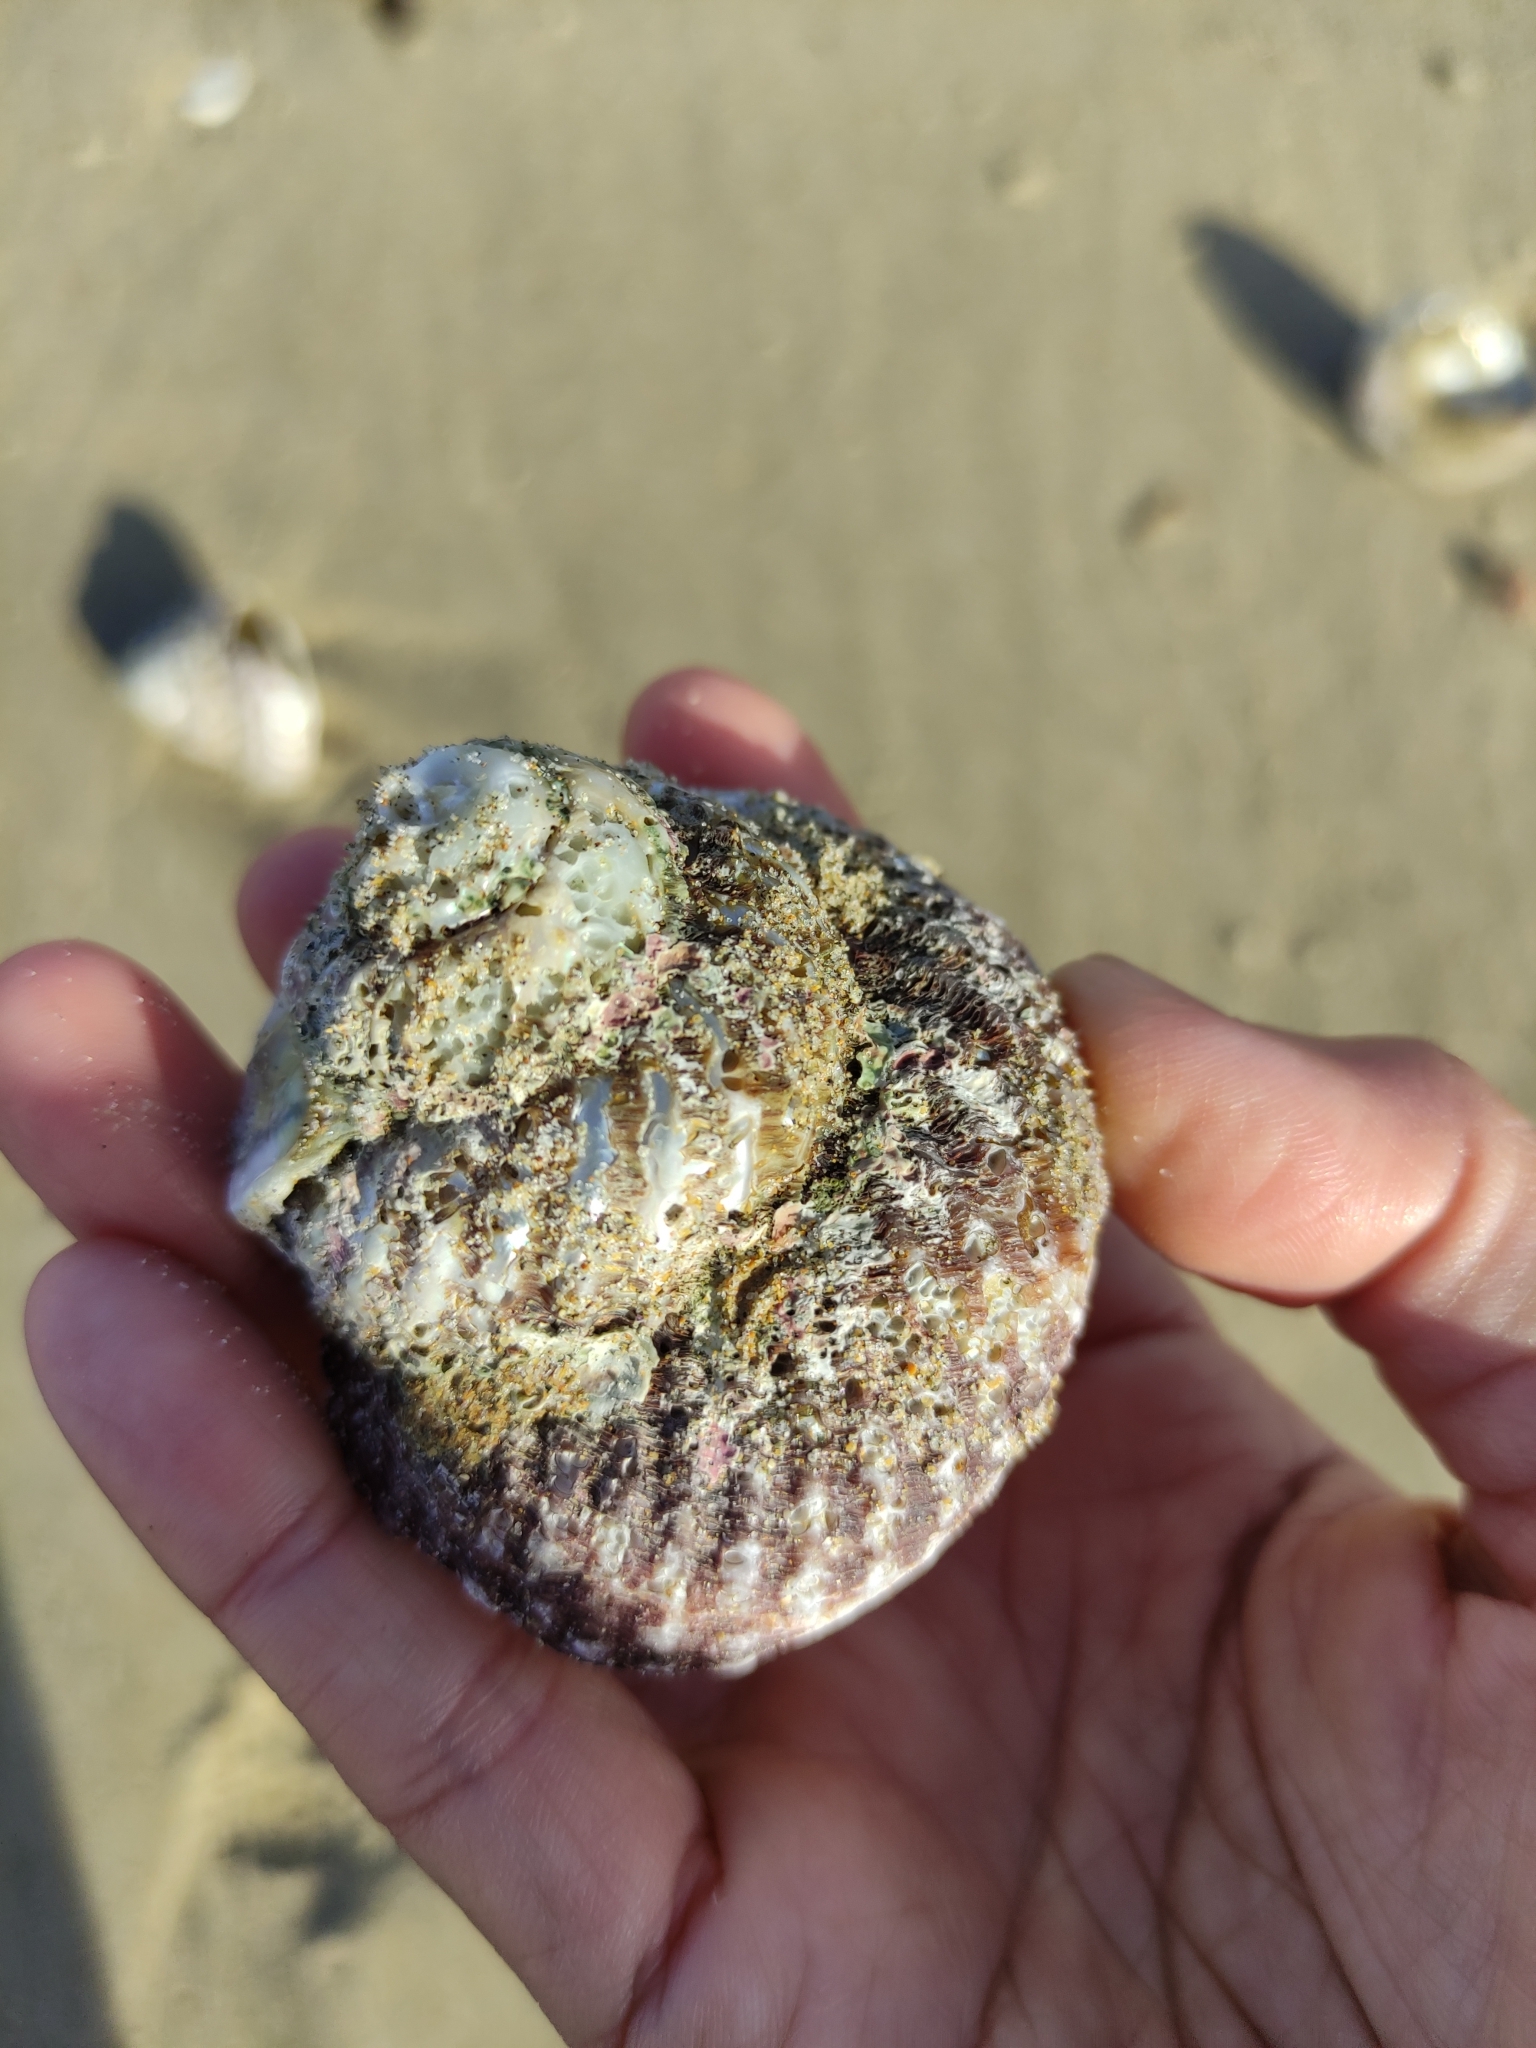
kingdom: Animalia
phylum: Mollusca
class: Gastropoda
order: Trochida
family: Turbinidae
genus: Cookia
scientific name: Cookia sulcata
